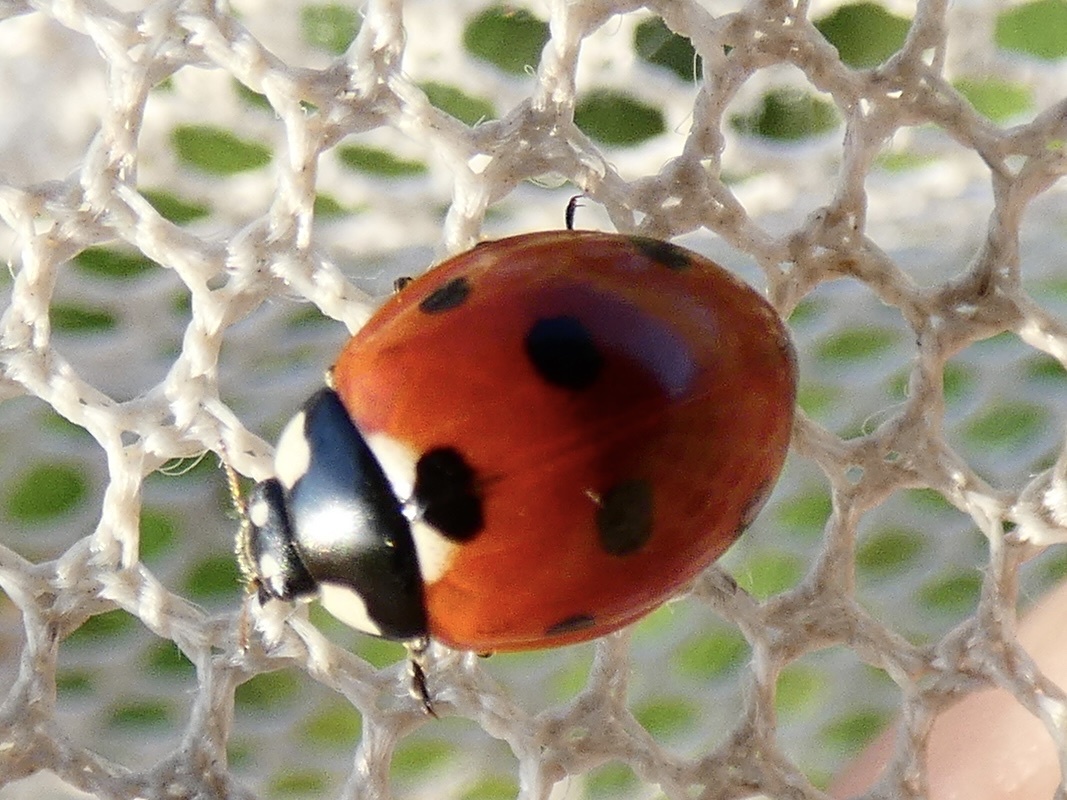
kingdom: Animalia
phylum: Arthropoda
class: Insecta
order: Coleoptera
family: Coccinellidae
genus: Coccinella
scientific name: Coccinella septempunctata
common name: Sevenspotted lady beetle
